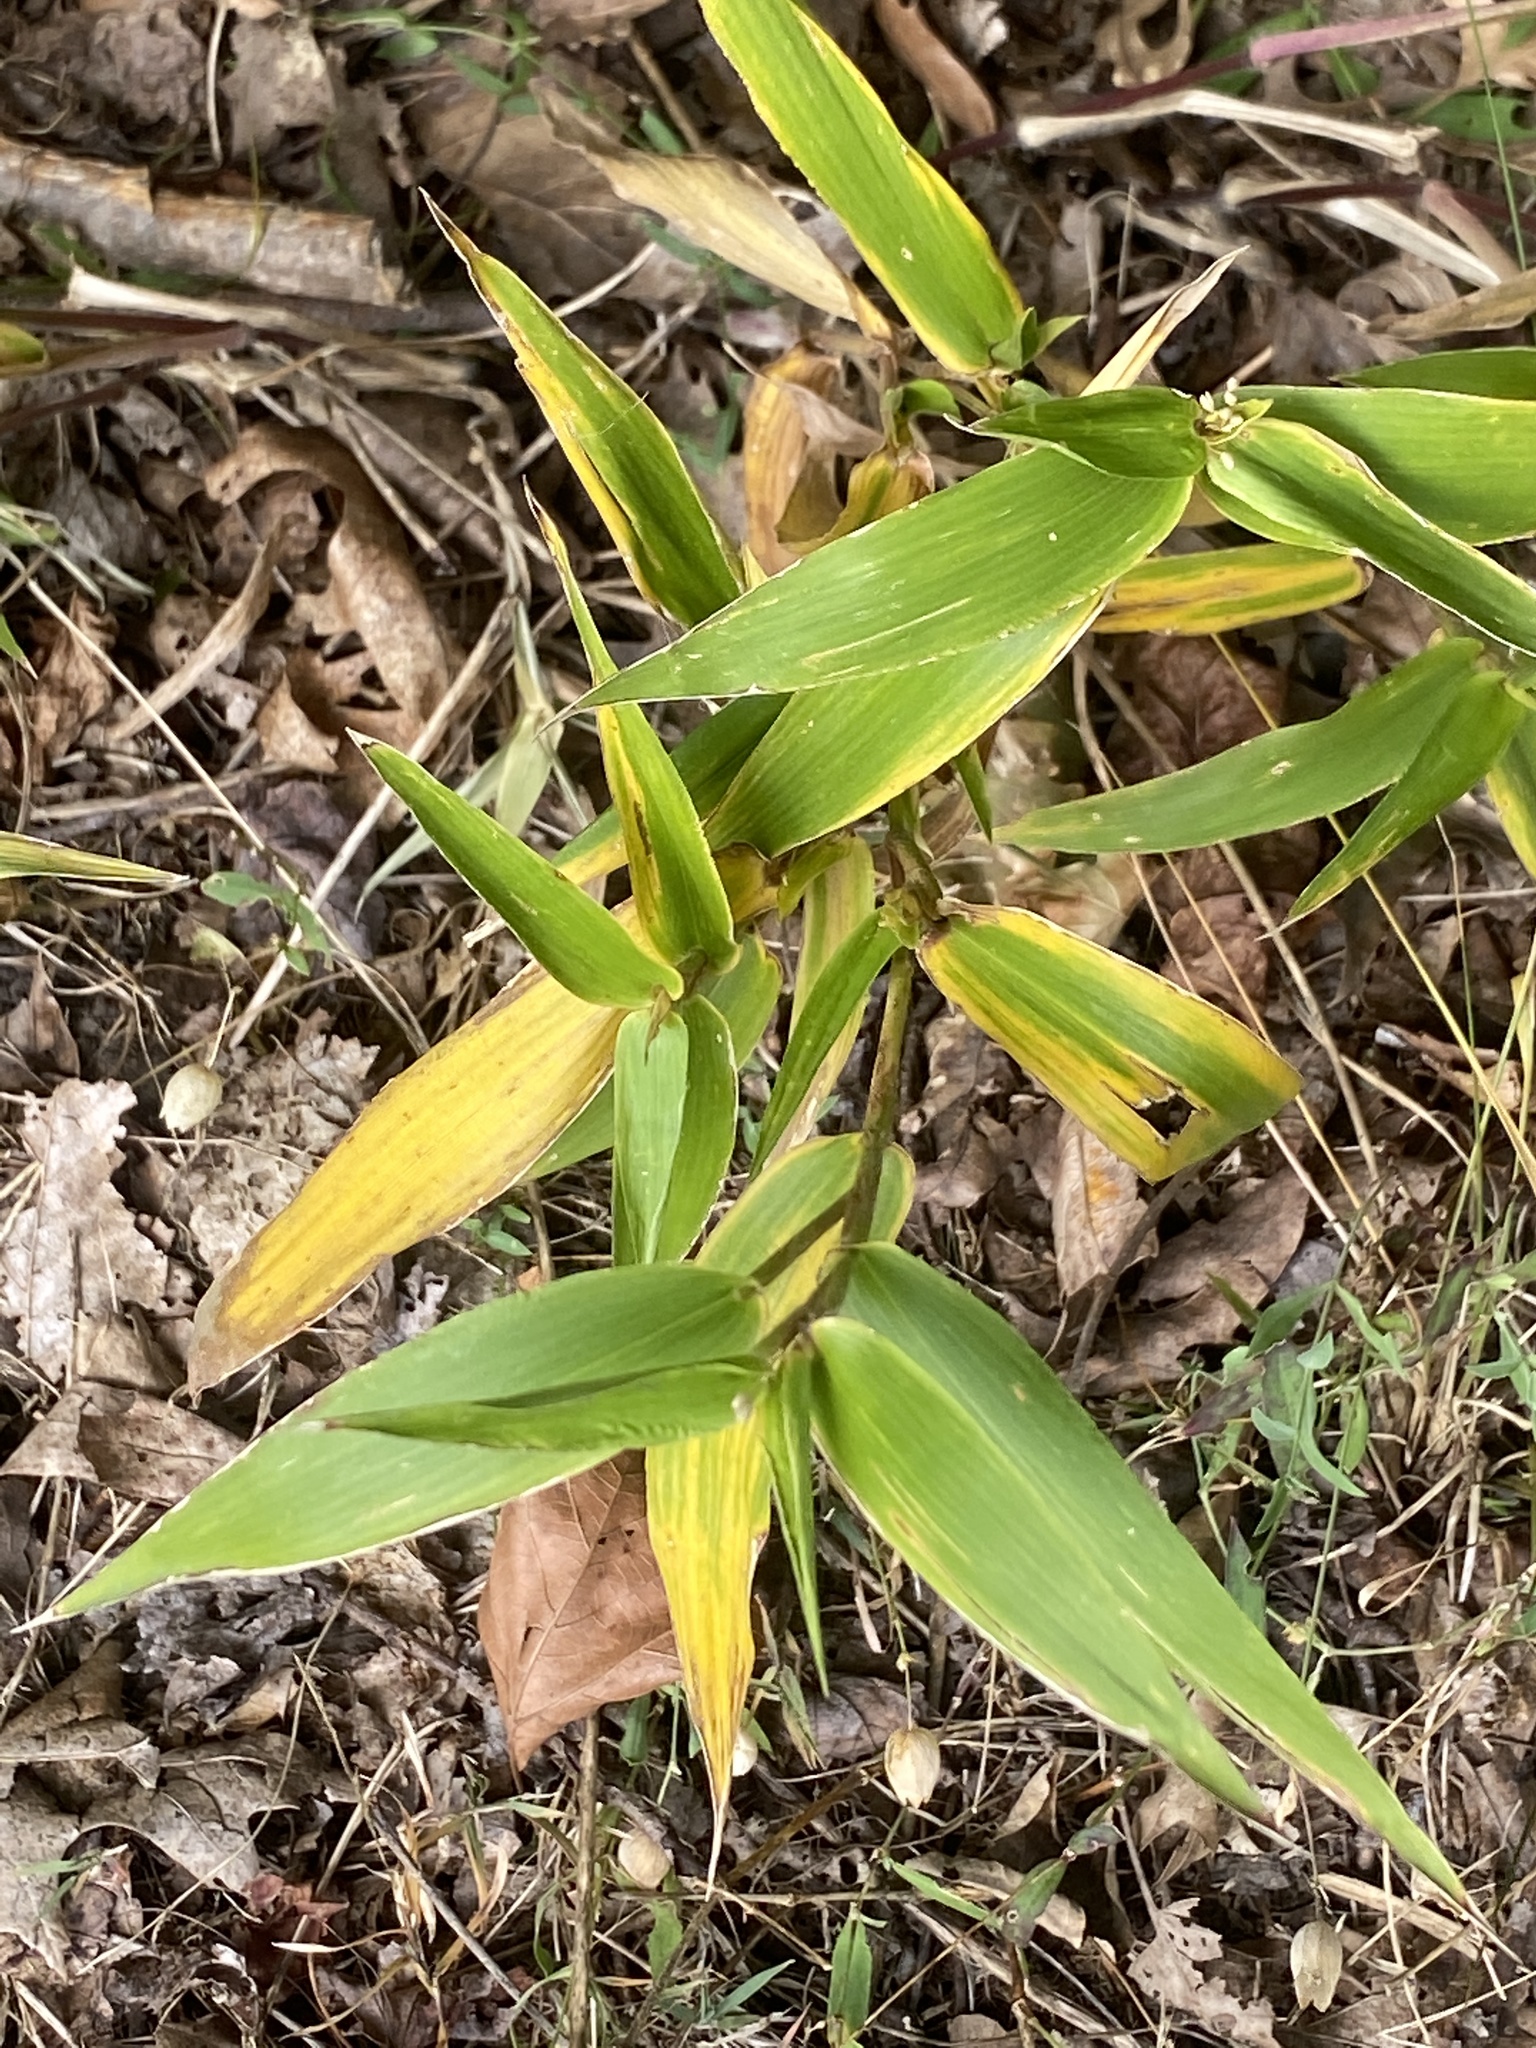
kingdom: Plantae
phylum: Tracheophyta
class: Liliopsida
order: Poales
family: Poaceae
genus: Dichanthelium
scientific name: Dichanthelium clandestinum
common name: Deer-tongue grass
